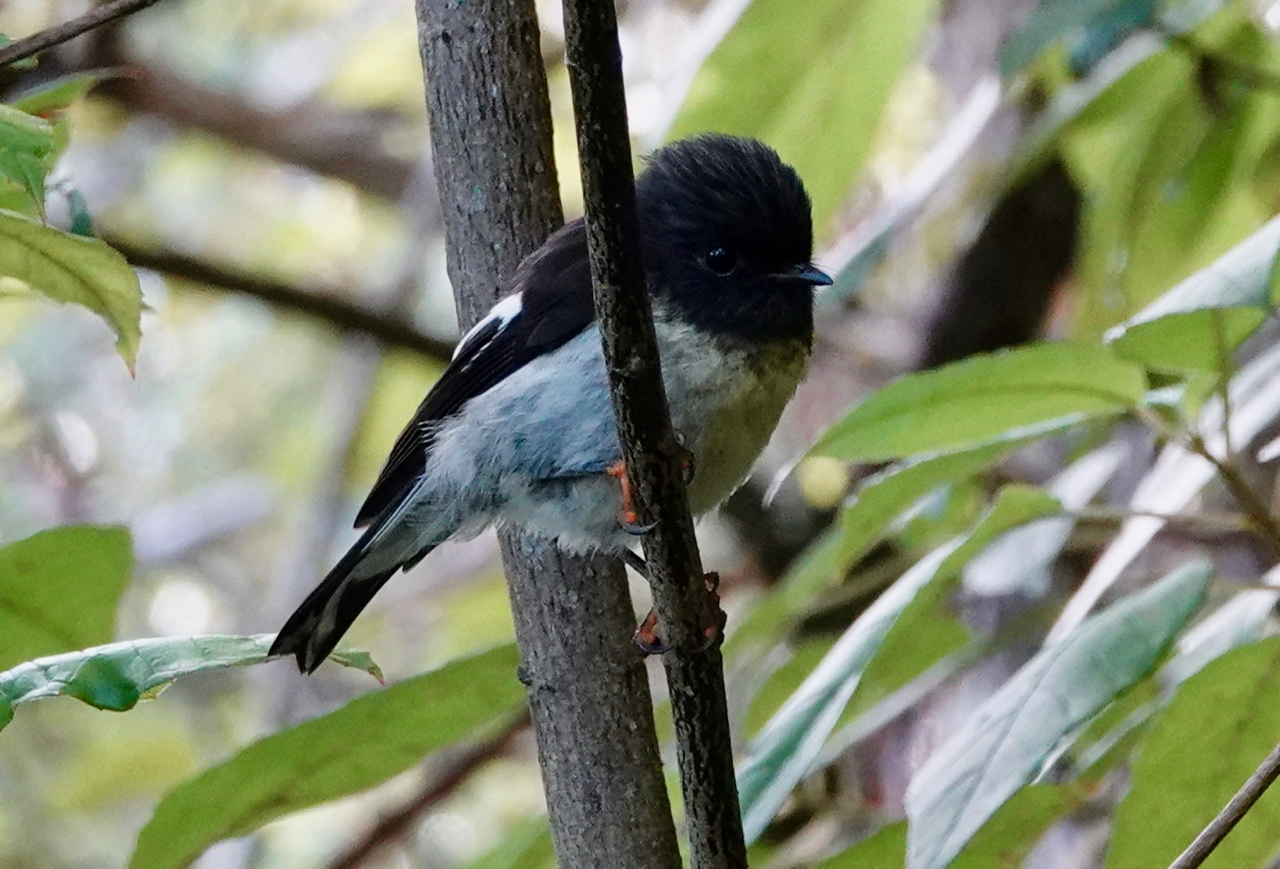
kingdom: Animalia
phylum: Chordata
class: Aves
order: Passeriformes
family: Petroicidae
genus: Petroica
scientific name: Petroica macrocephala
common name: Tomtit
